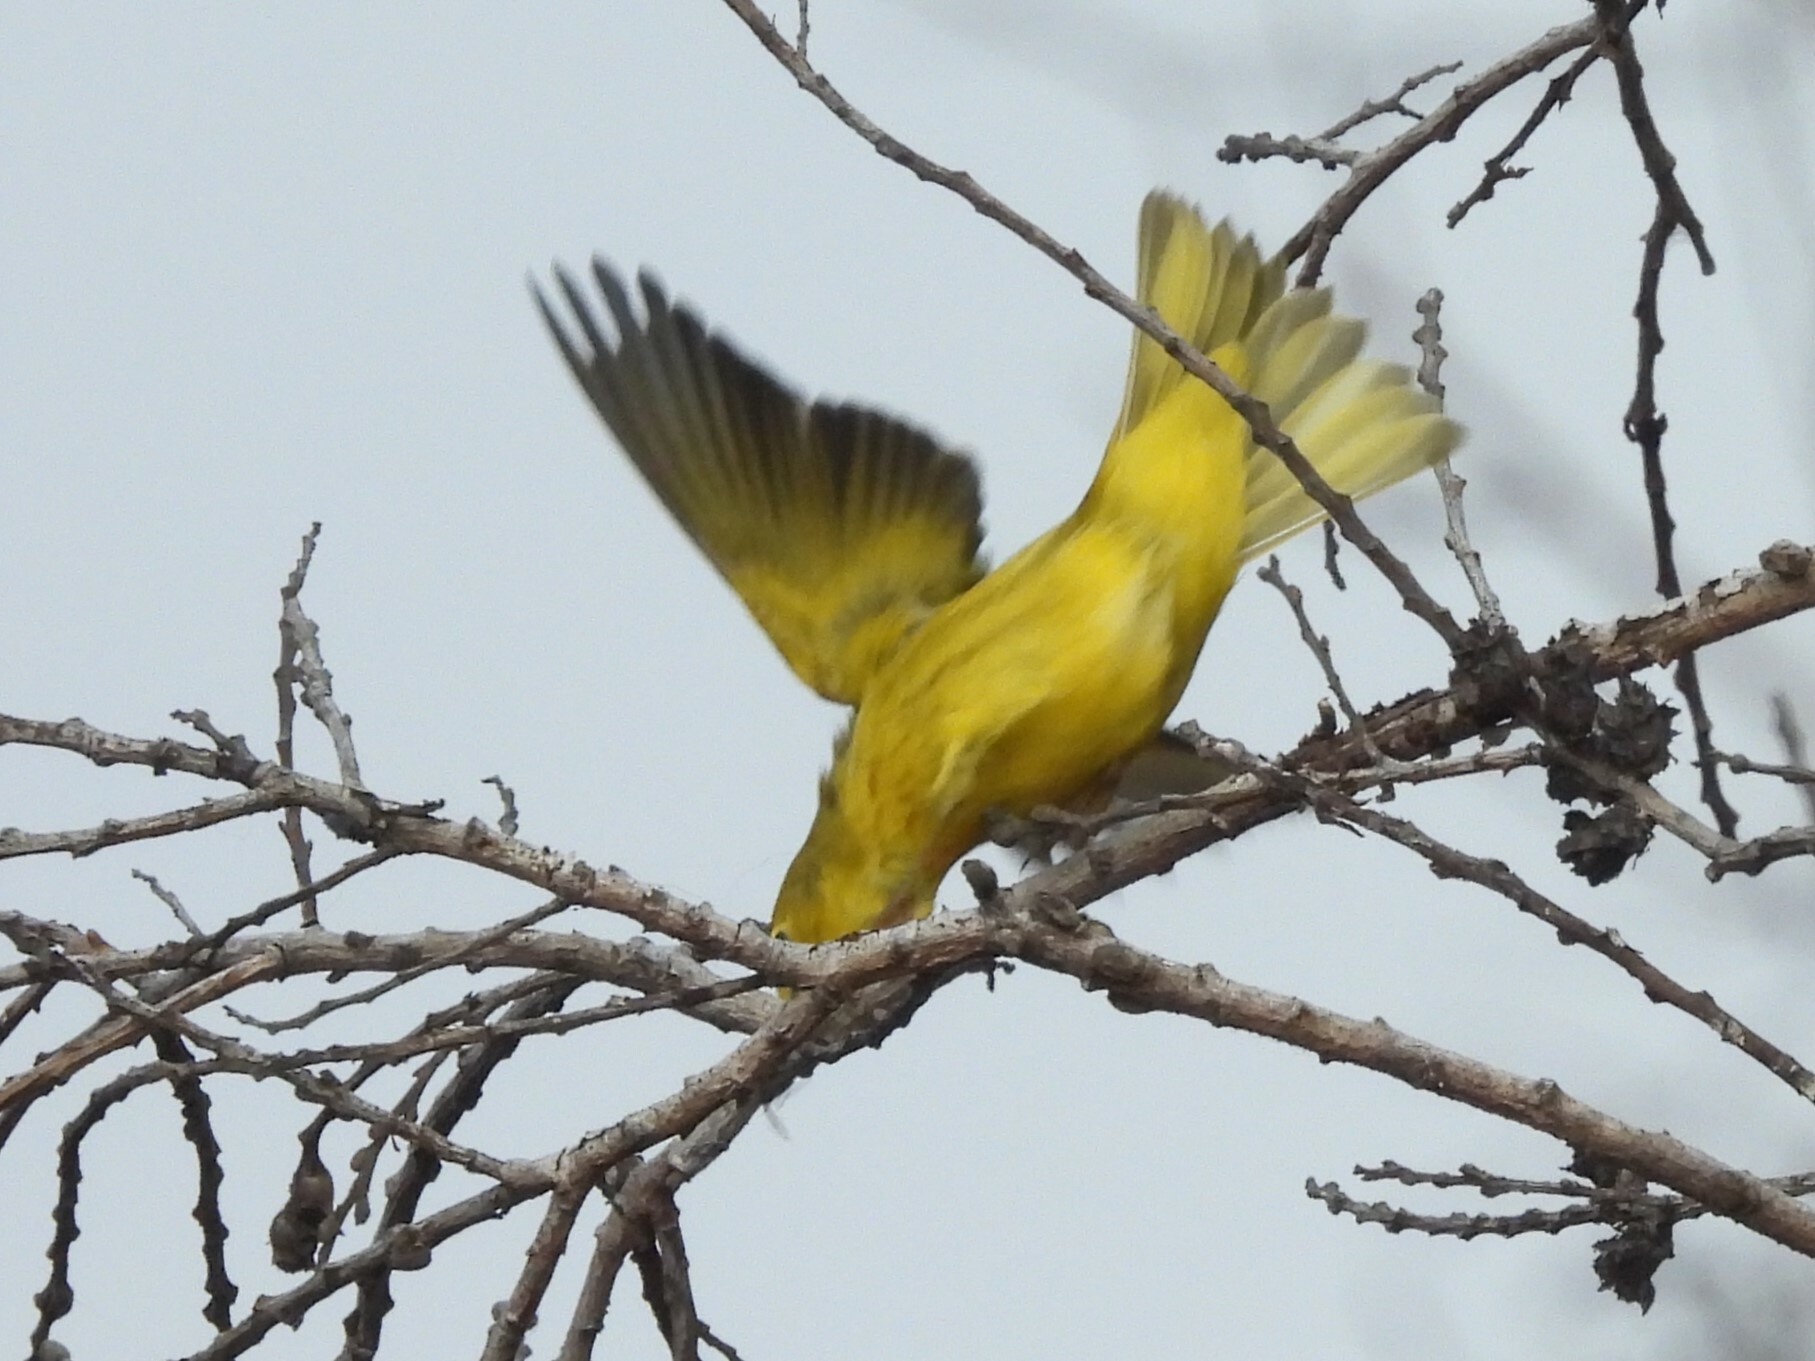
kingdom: Animalia
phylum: Chordata
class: Aves
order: Passeriformes
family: Parulidae
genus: Setophaga
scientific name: Setophaga petechia
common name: Yellow warbler
